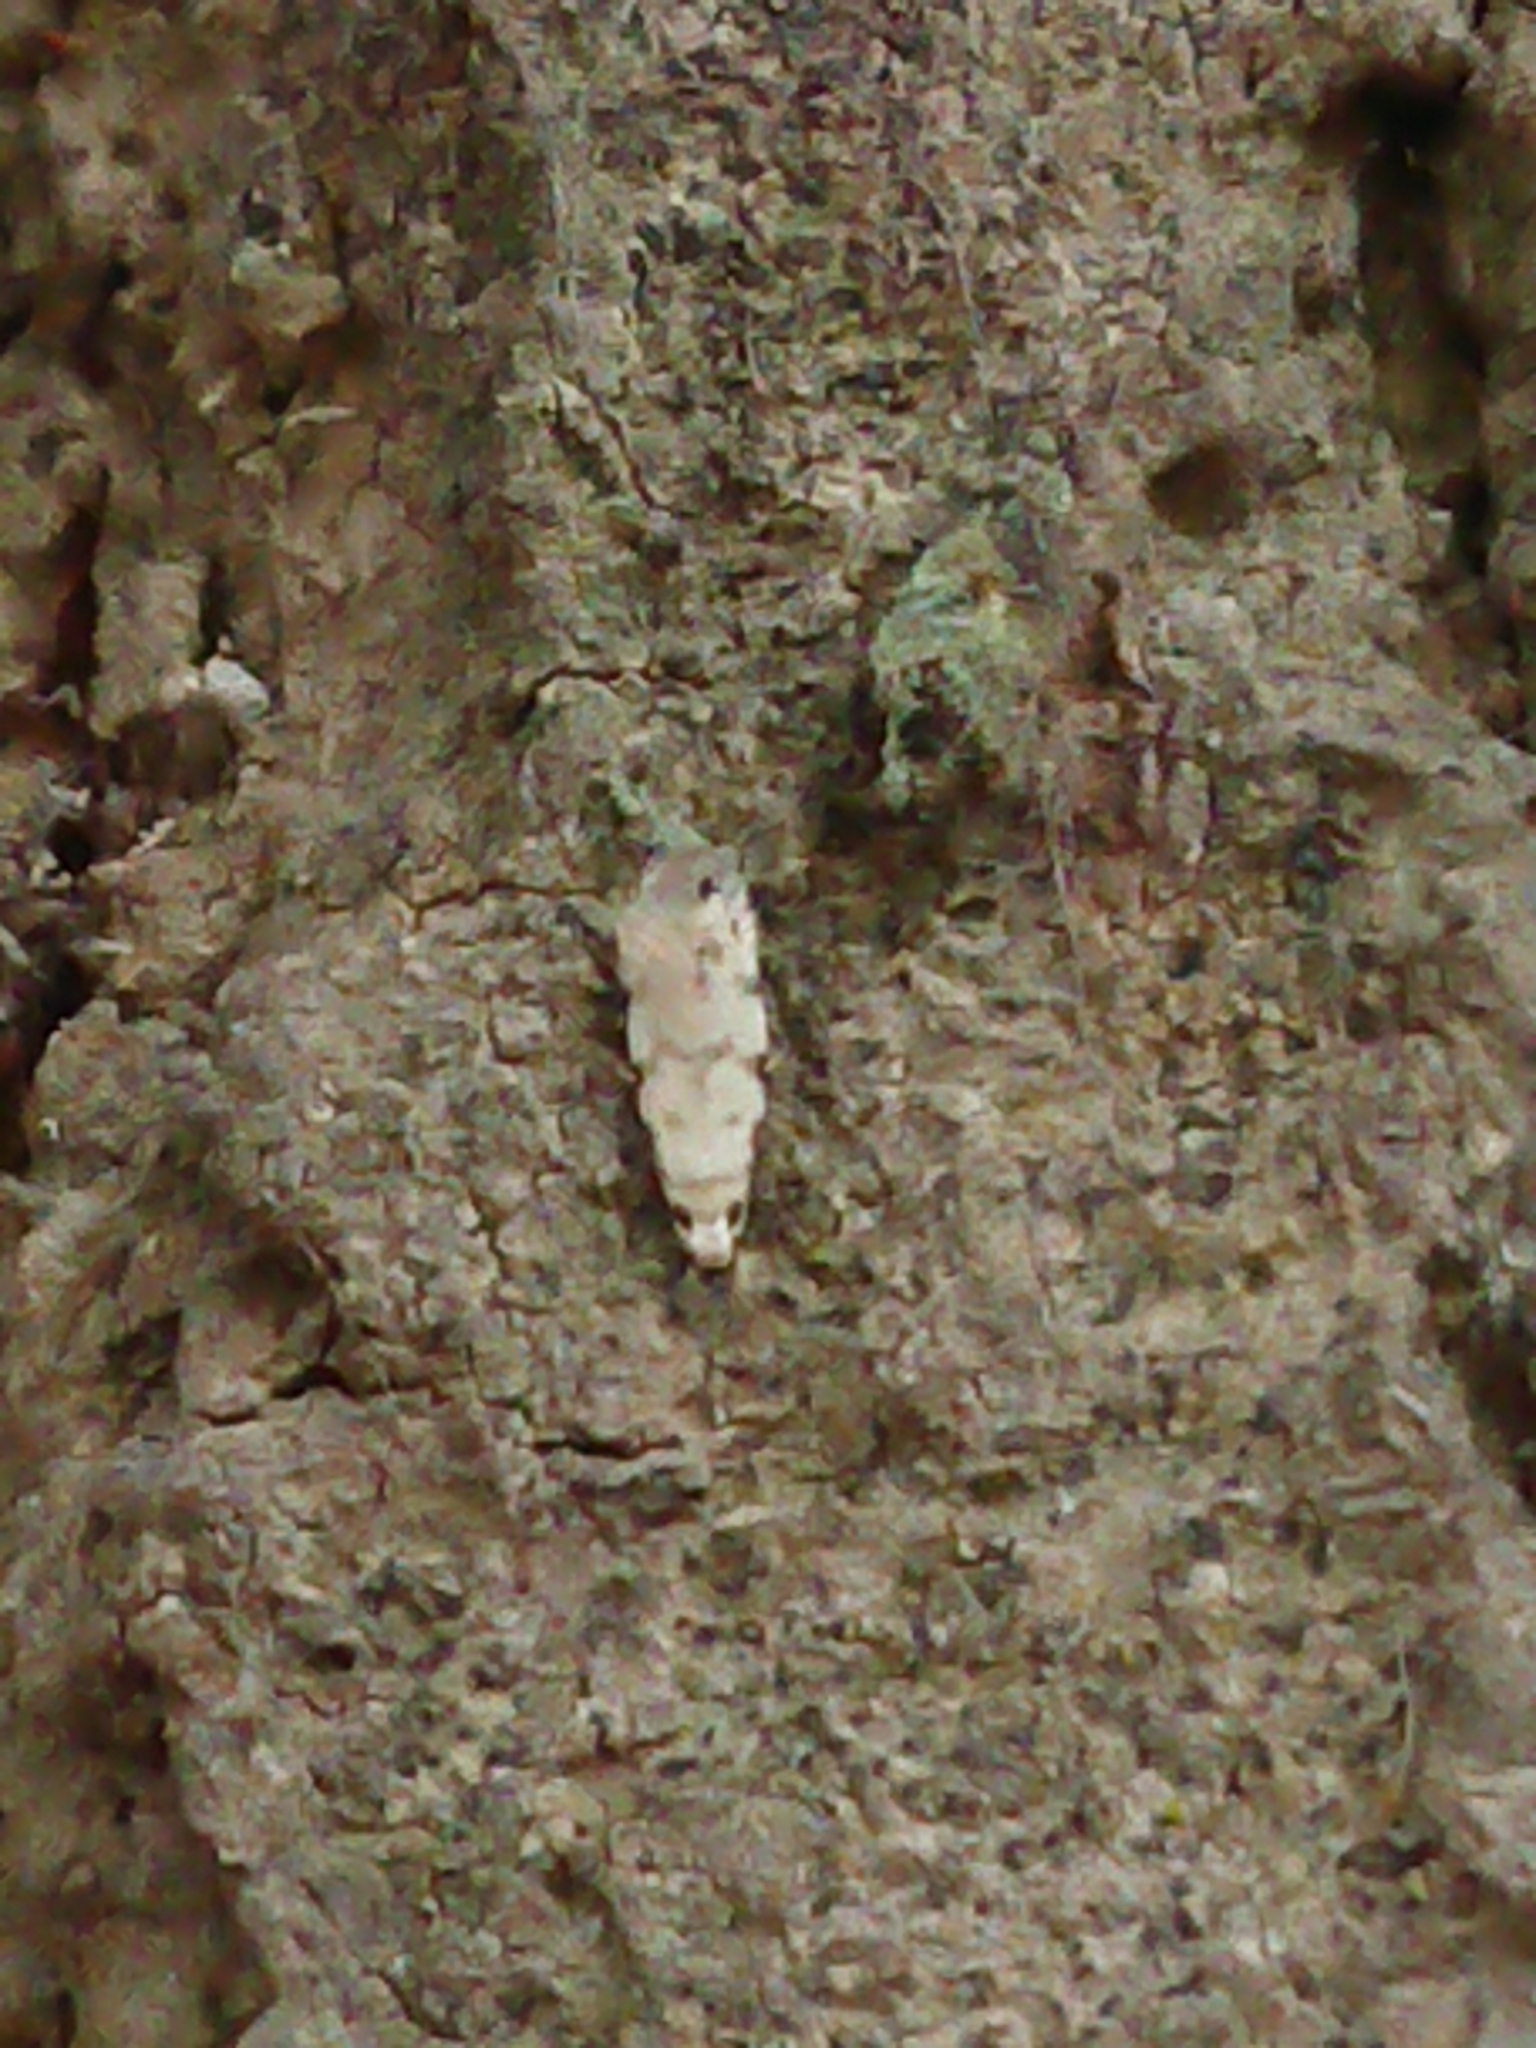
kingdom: Animalia
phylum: Arthropoda
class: Insecta
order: Lepidoptera
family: Tineidae
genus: Crypsitricha
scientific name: Crypsitricha stereota
